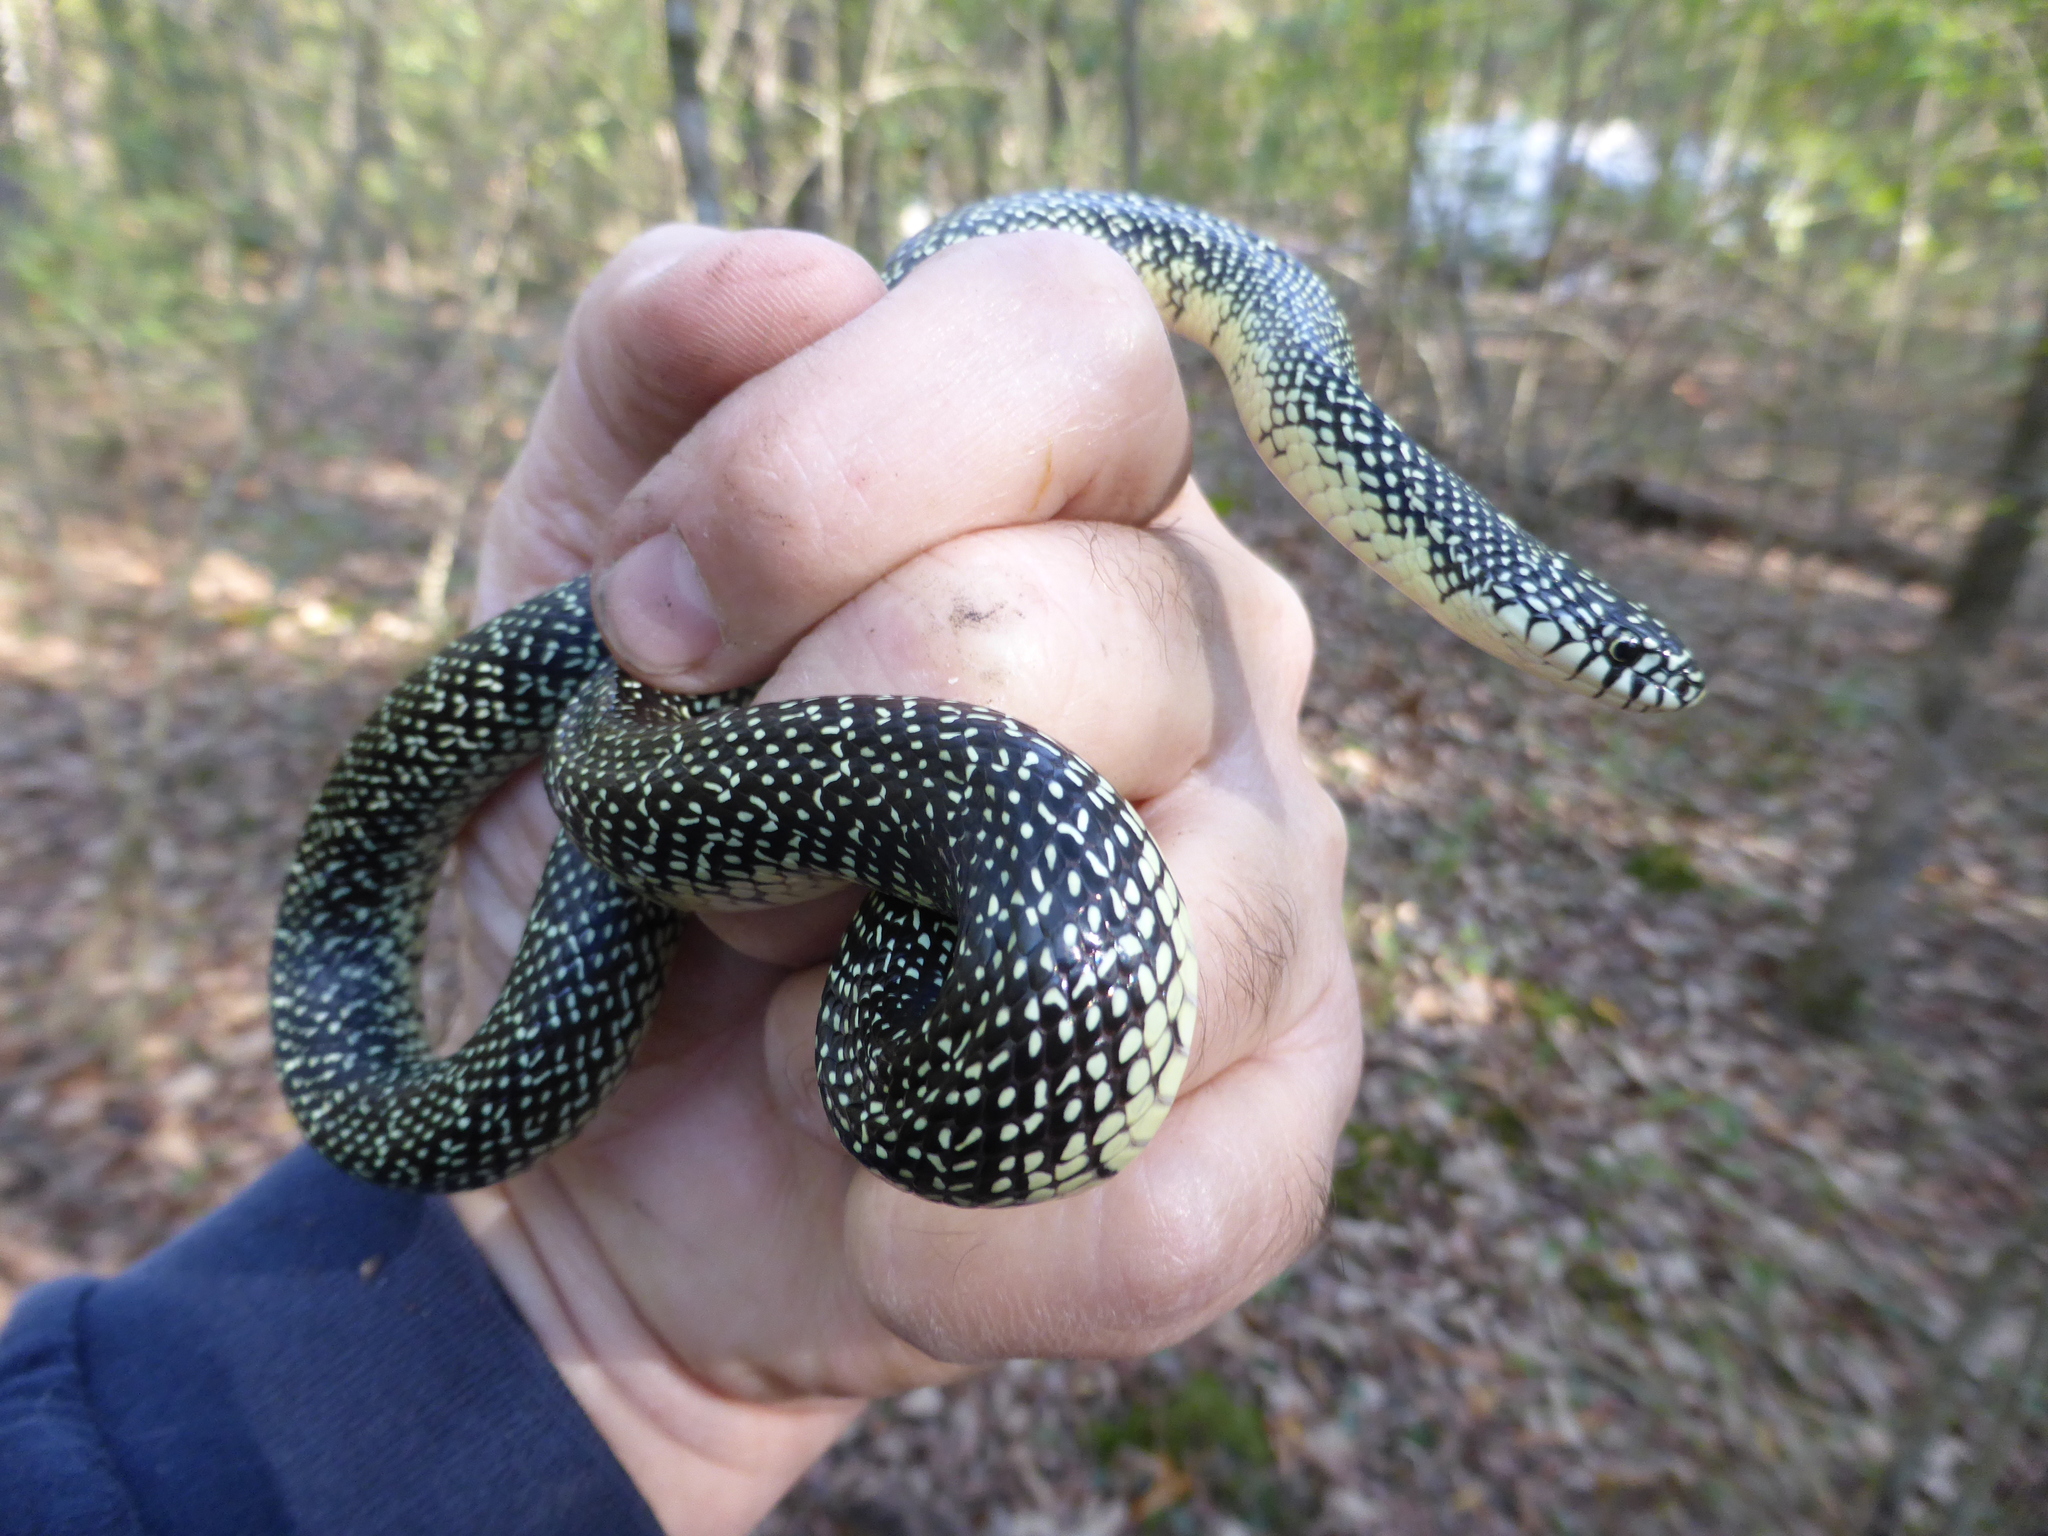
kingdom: Animalia
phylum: Chordata
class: Squamata
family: Colubridae
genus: Lampropeltis
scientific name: Lampropeltis holbrooki
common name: Speckled kingsnake
